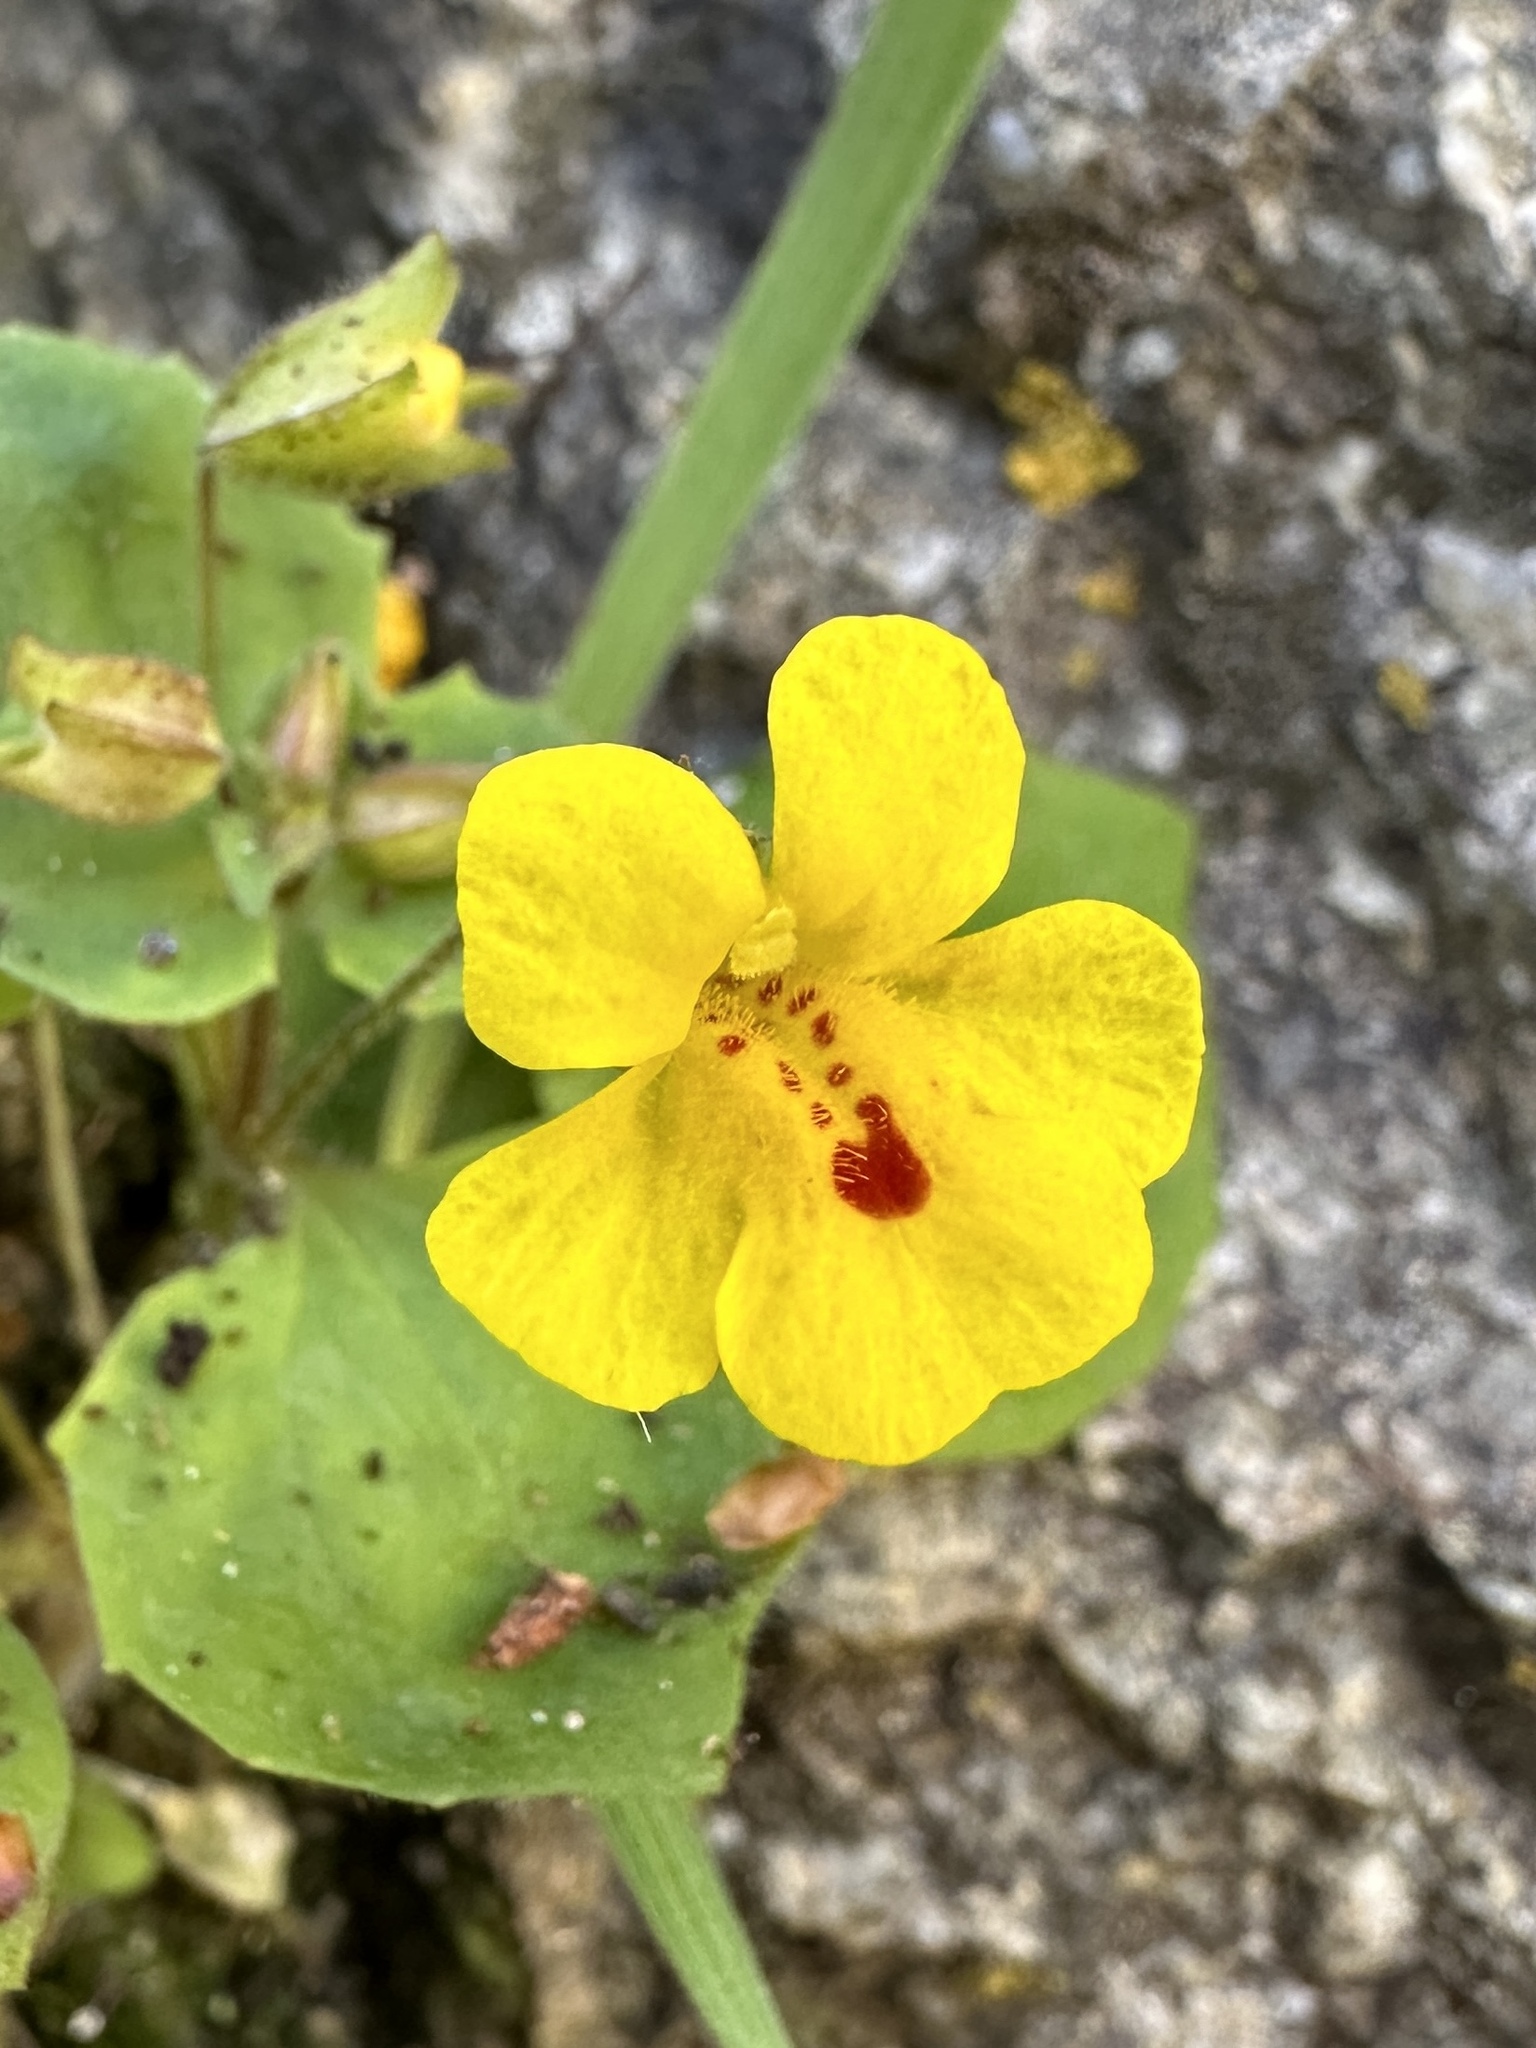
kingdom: Plantae
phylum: Tracheophyta
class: Magnoliopsida
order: Lamiales
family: Phrymaceae
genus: Erythranthe
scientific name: Erythranthe marmorata
